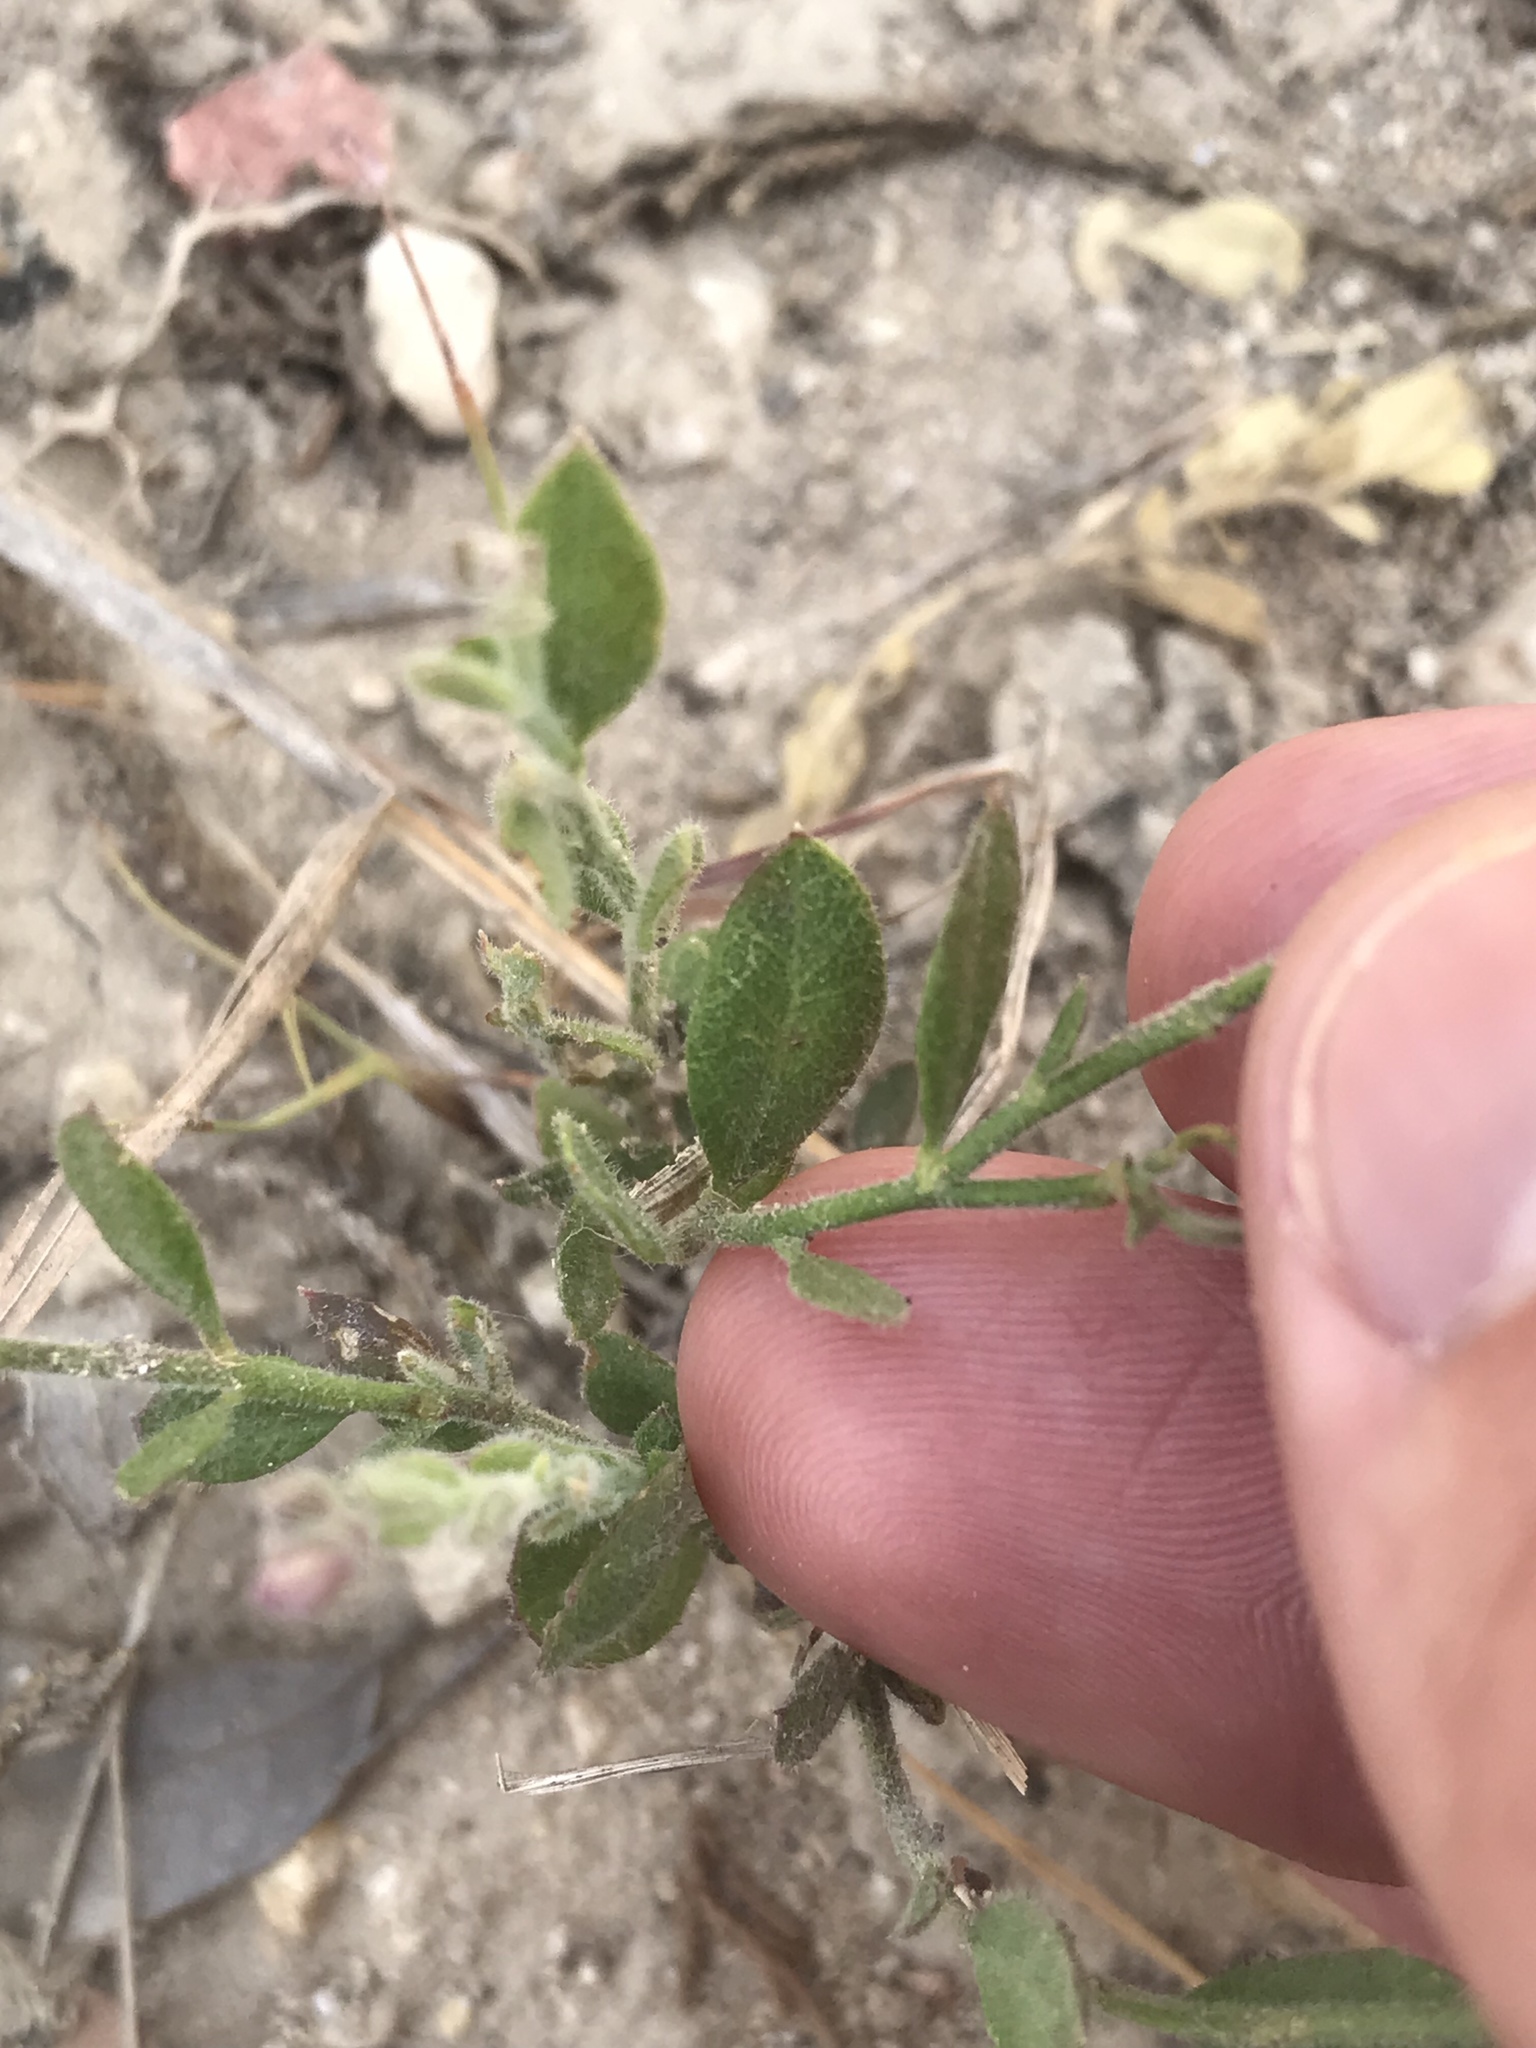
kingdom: Plantae
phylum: Tracheophyta
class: Magnoliopsida
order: Fabales
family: Polygalaceae
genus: Rhinotropis
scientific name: Rhinotropis lindheimeri
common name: Shrubby milkwort
